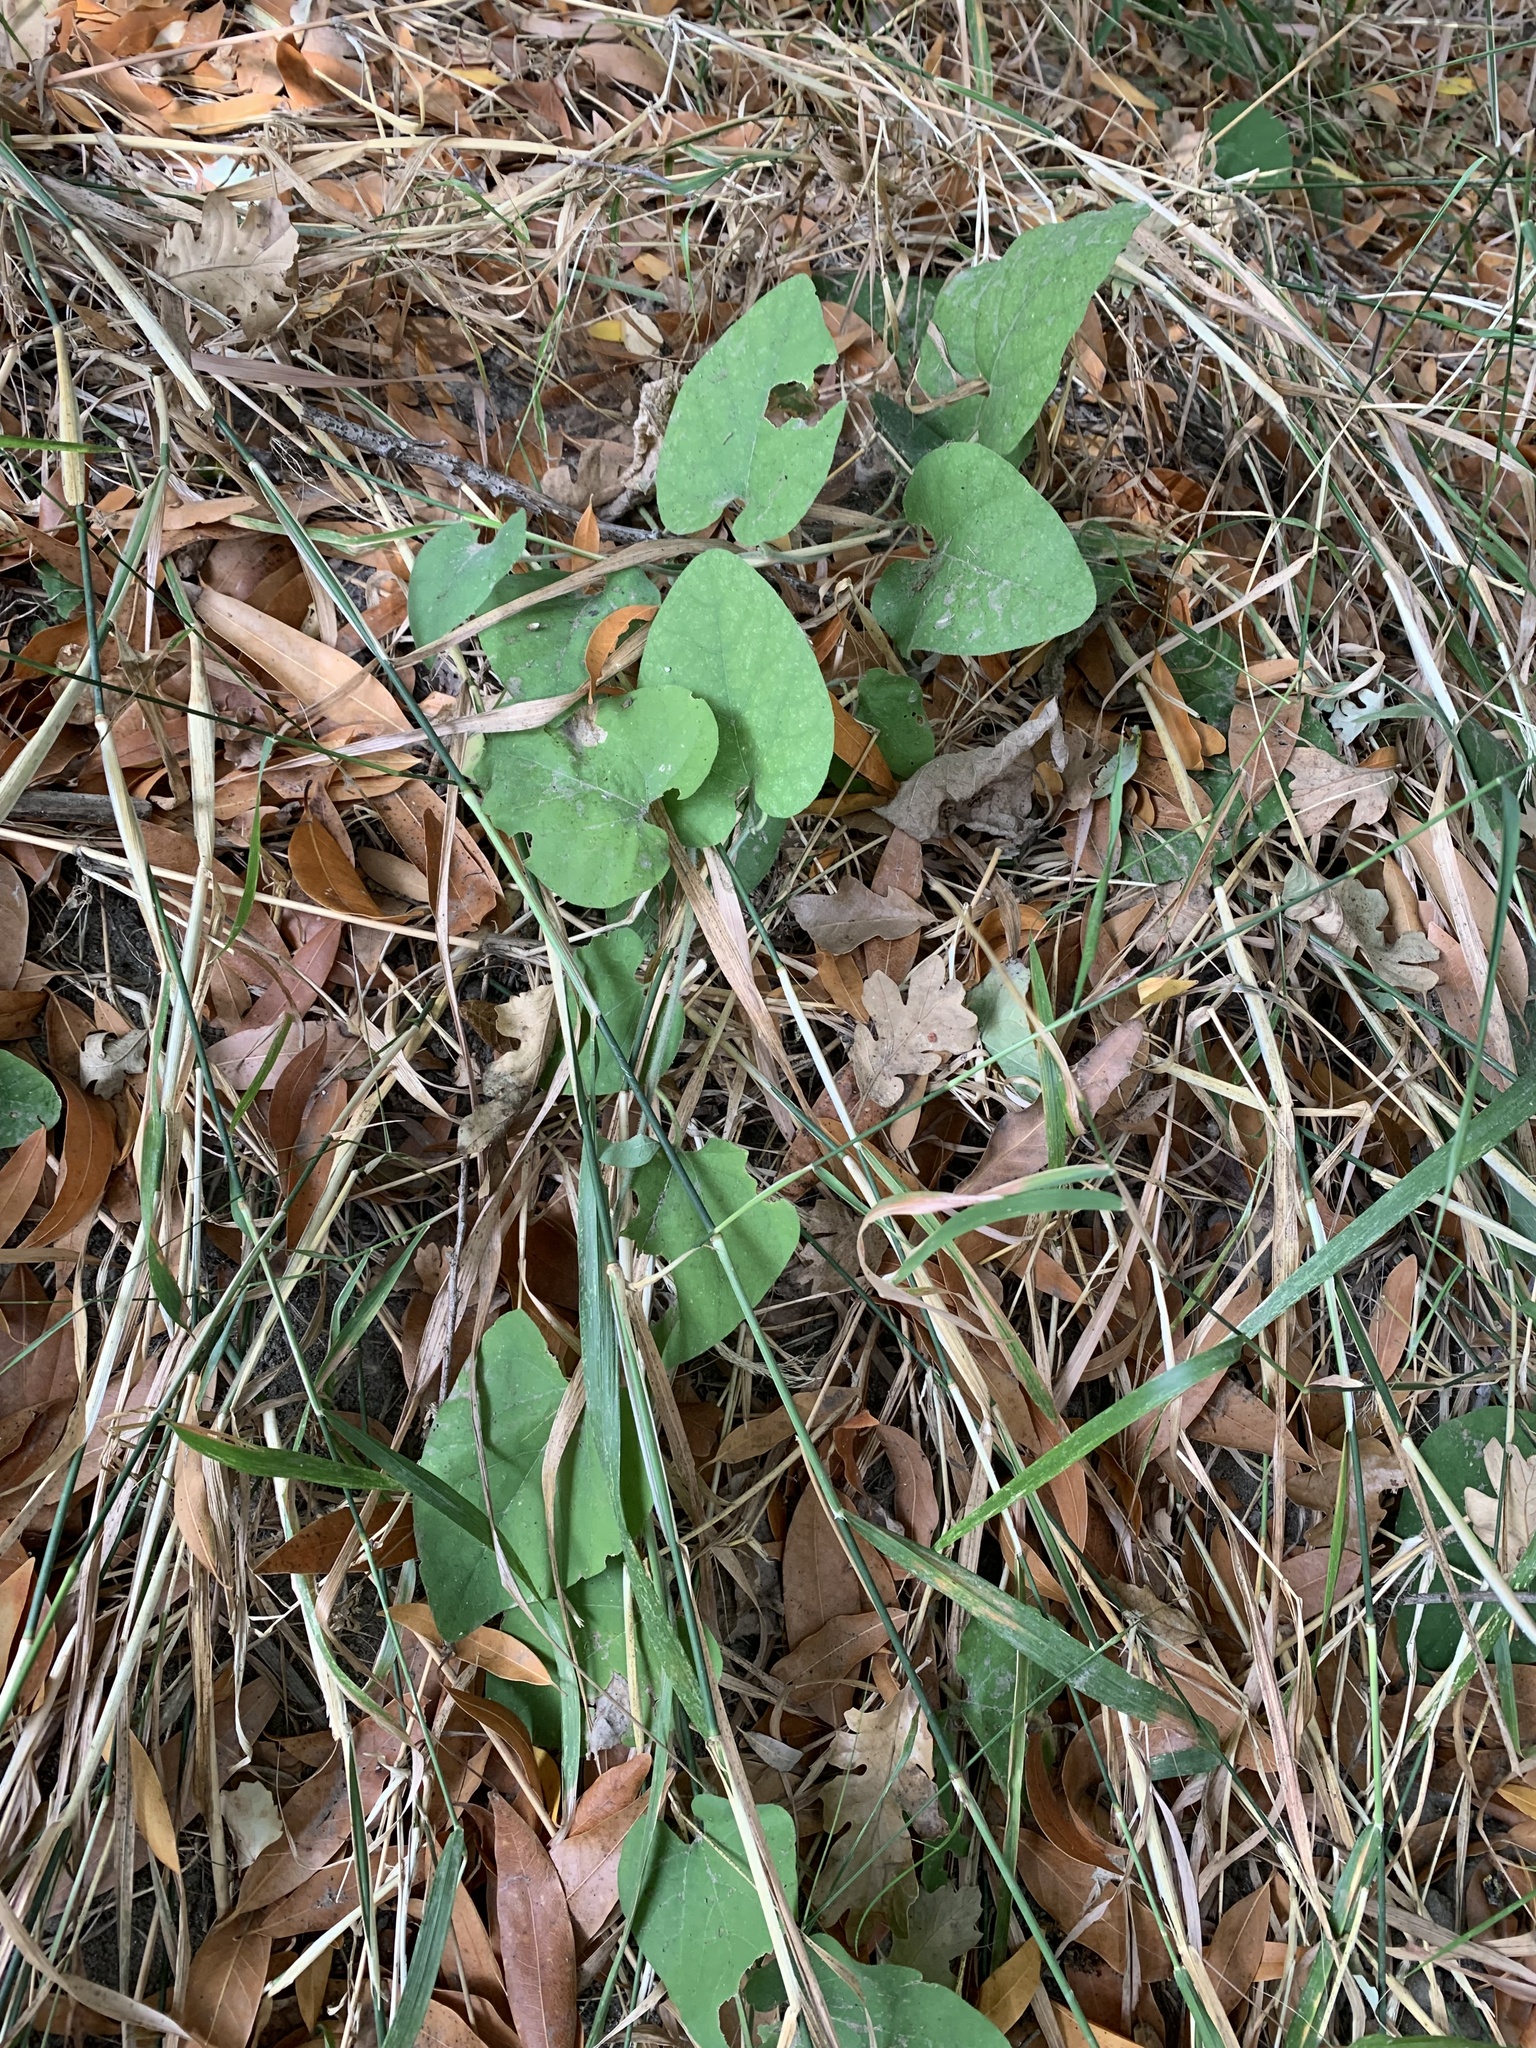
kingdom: Plantae
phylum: Tracheophyta
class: Magnoliopsida
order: Piperales
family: Aristolochiaceae
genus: Isotrema
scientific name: Isotrema californicum
